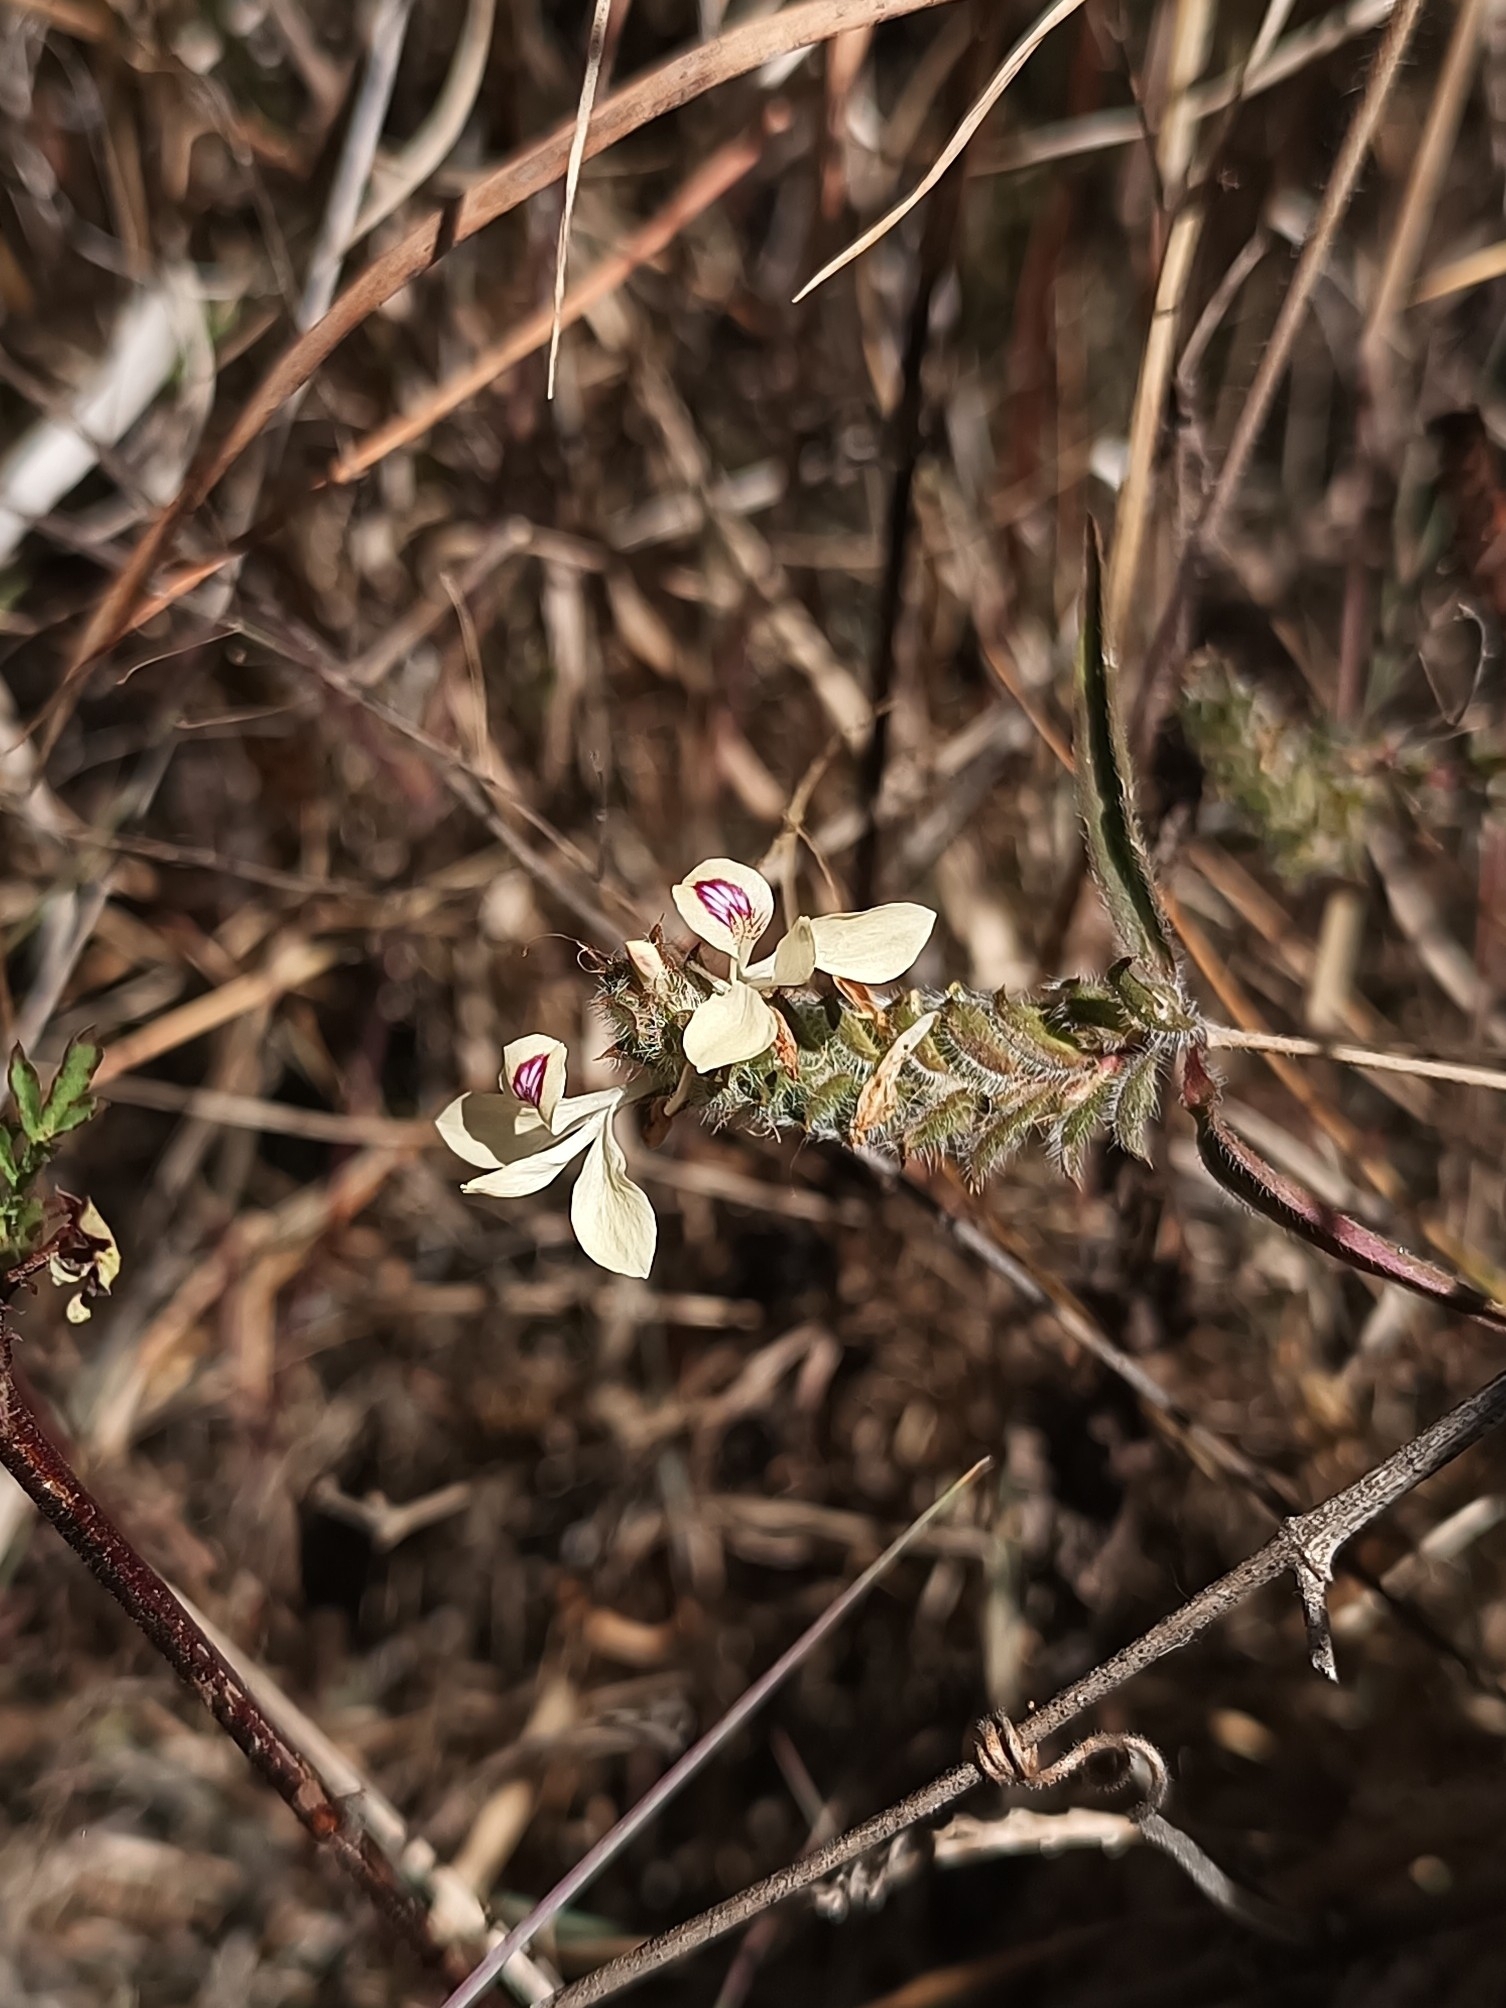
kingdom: Plantae
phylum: Tracheophyta
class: Magnoliopsida
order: Lamiales
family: Acanthaceae
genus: Tetramerium
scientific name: Tetramerium nervosum
